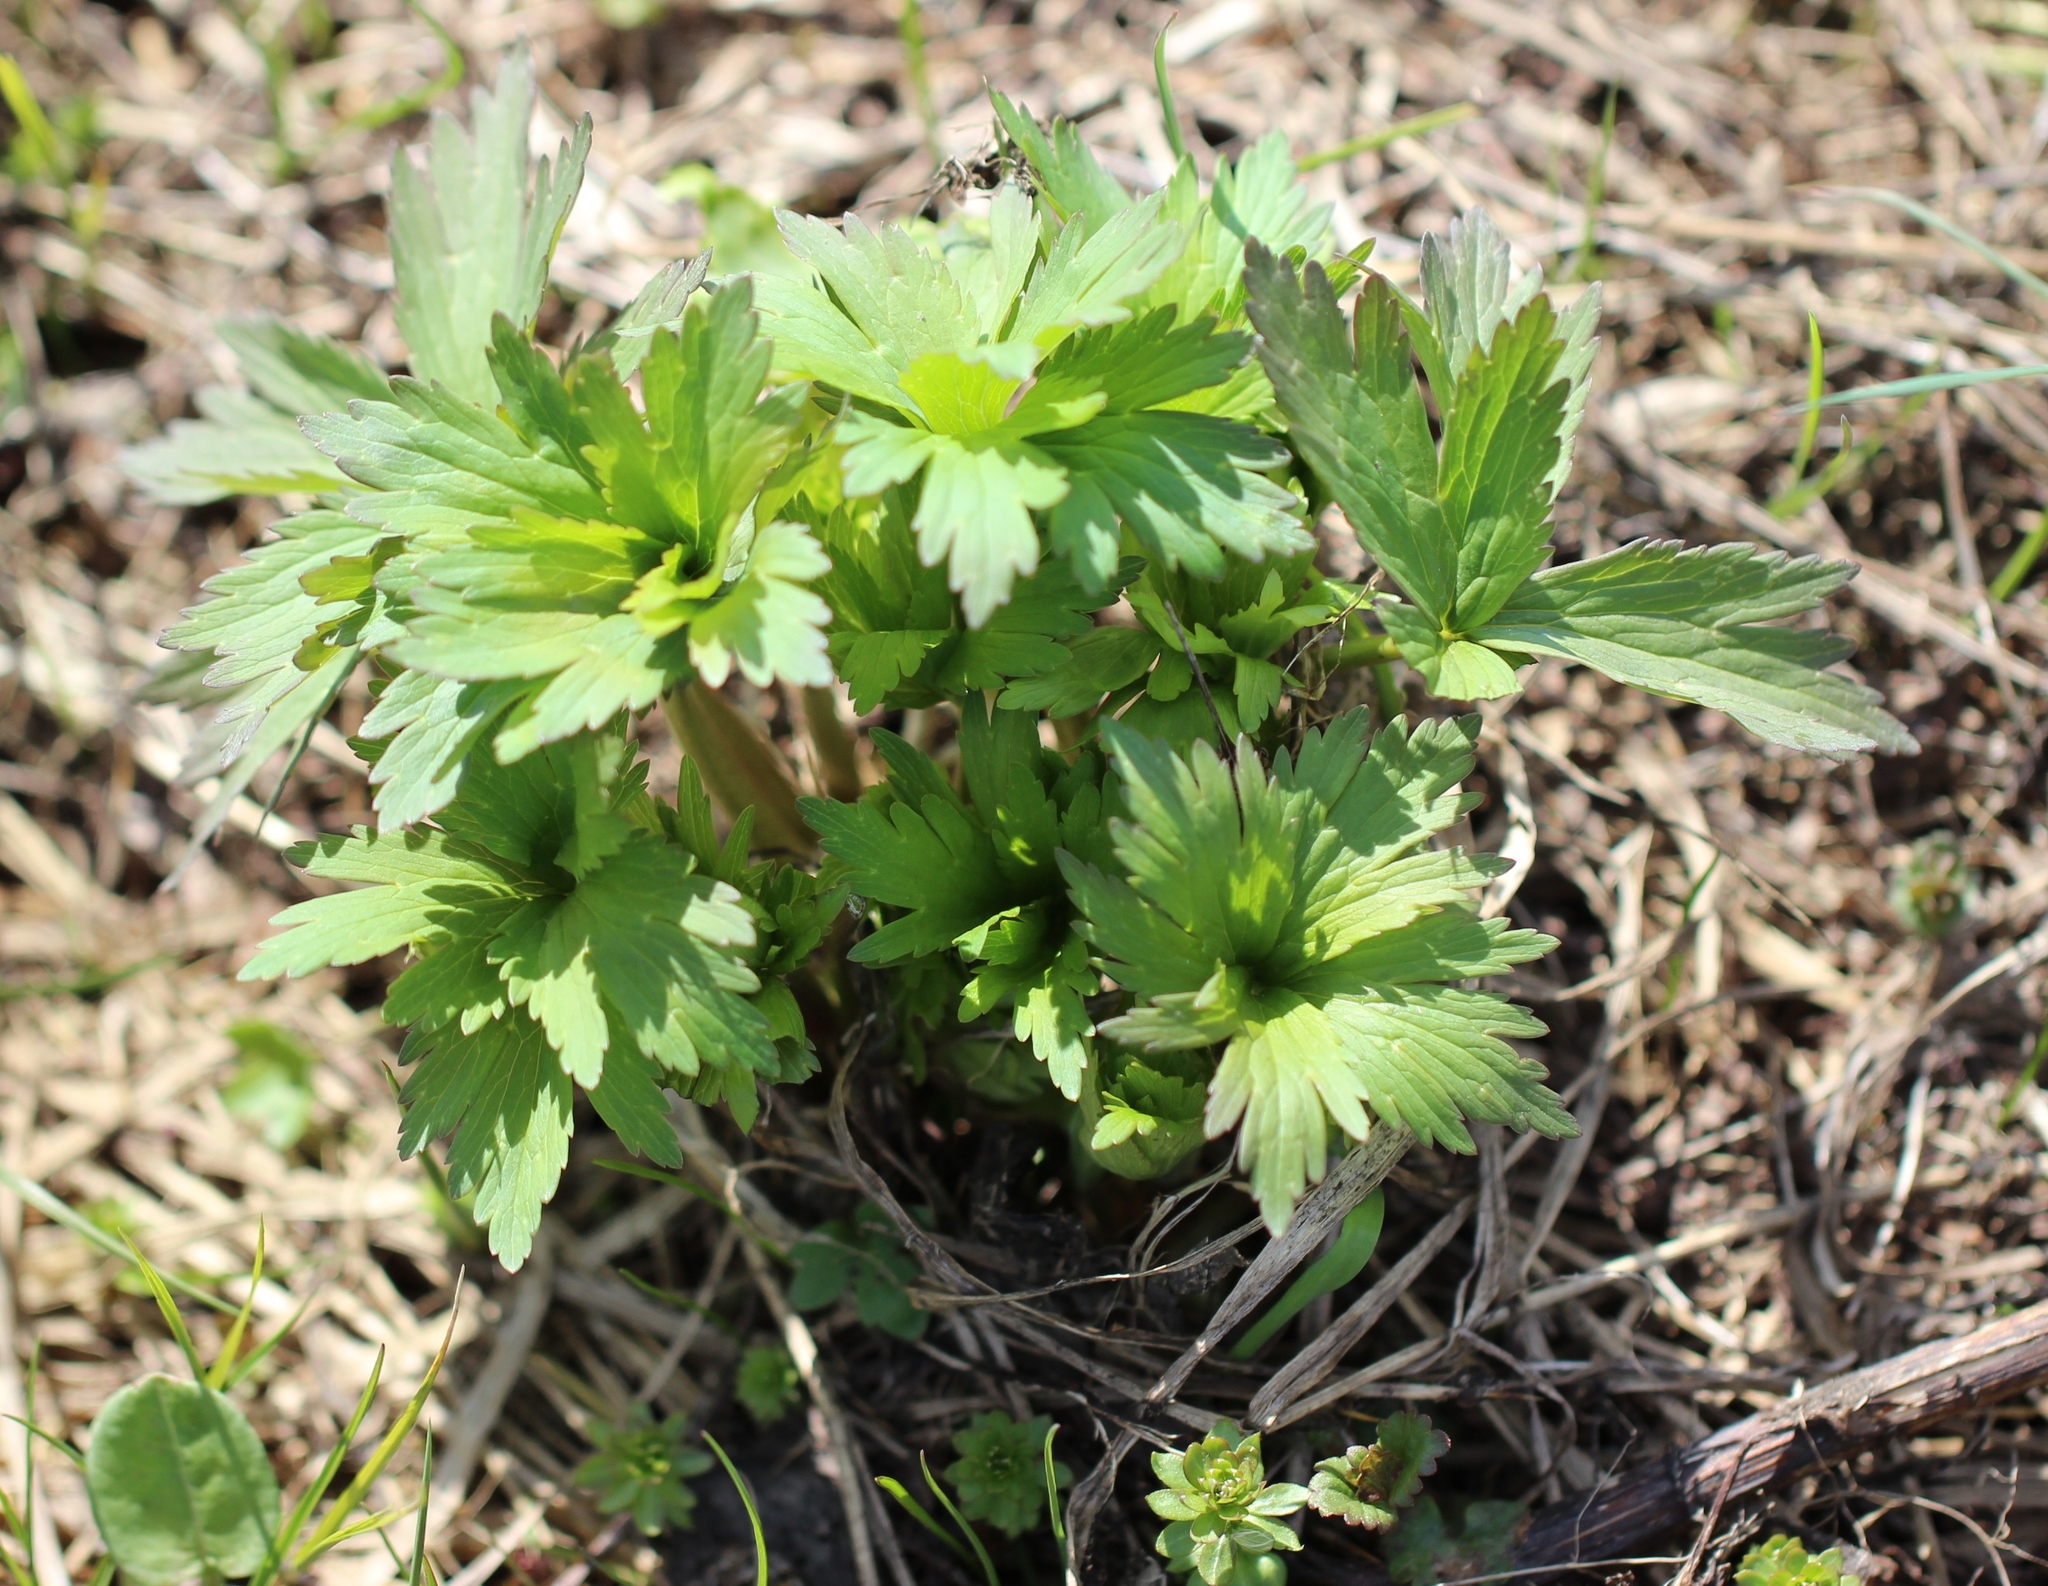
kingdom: Plantae
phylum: Tracheophyta
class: Magnoliopsida
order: Ranunculales
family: Ranunculaceae
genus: Trollius
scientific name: Trollius europaeus
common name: European globeflower
